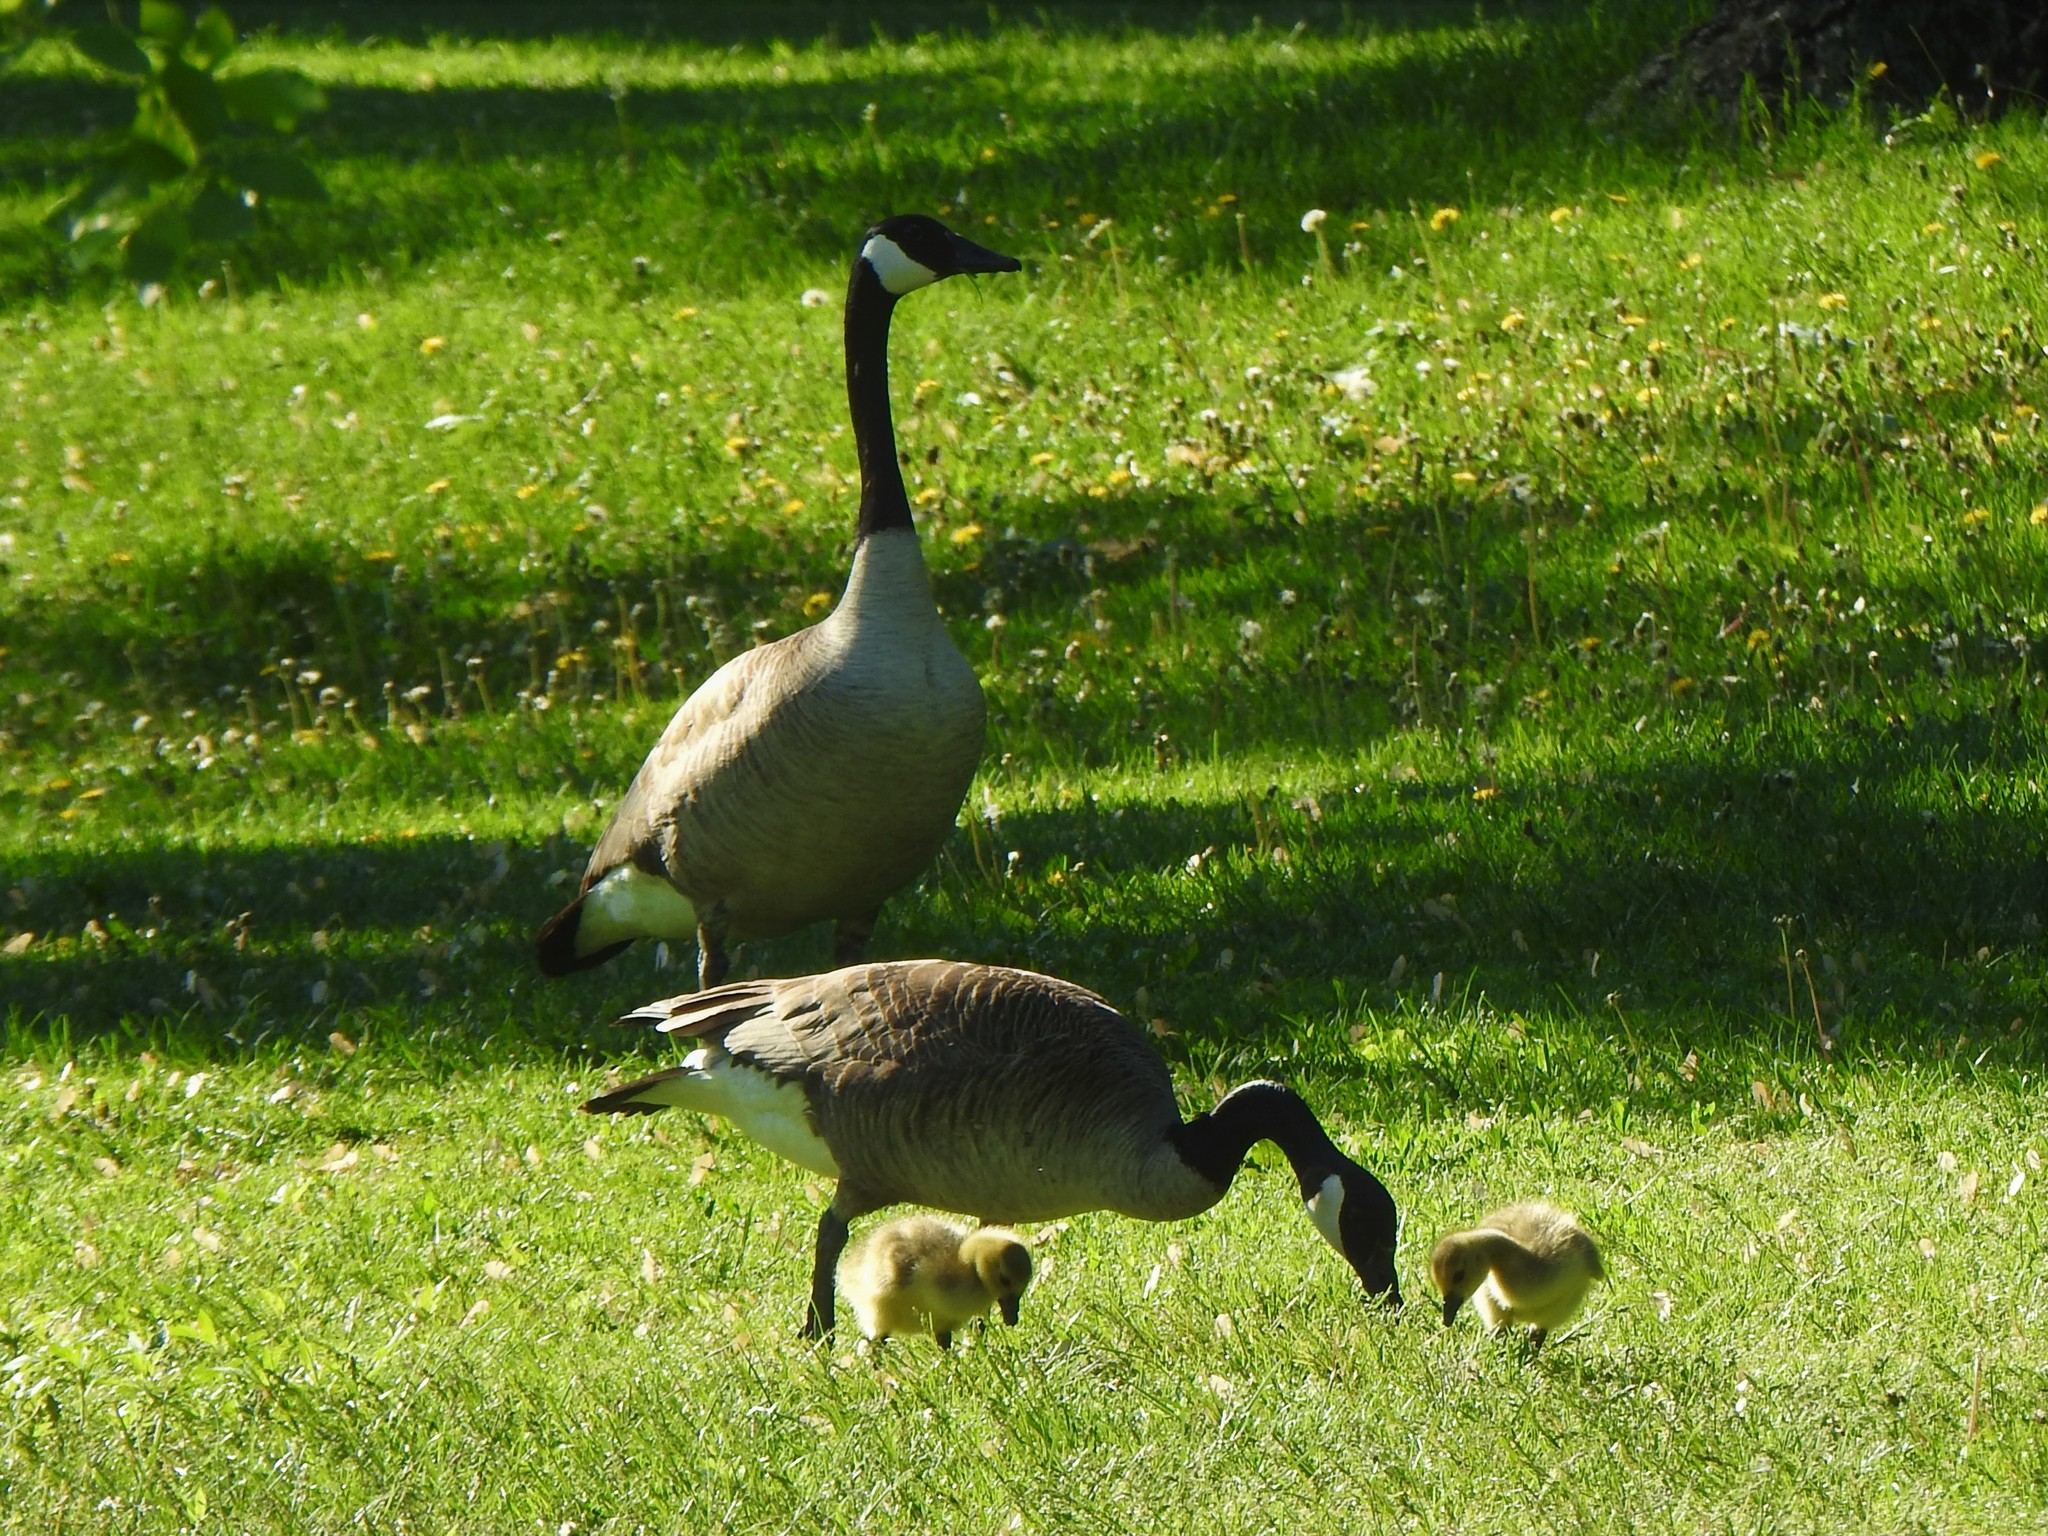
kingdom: Animalia
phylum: Chordata
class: Aves
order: Anseriformes
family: Anatidae
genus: Branta
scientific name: Branta canadensis
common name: Canada goose
